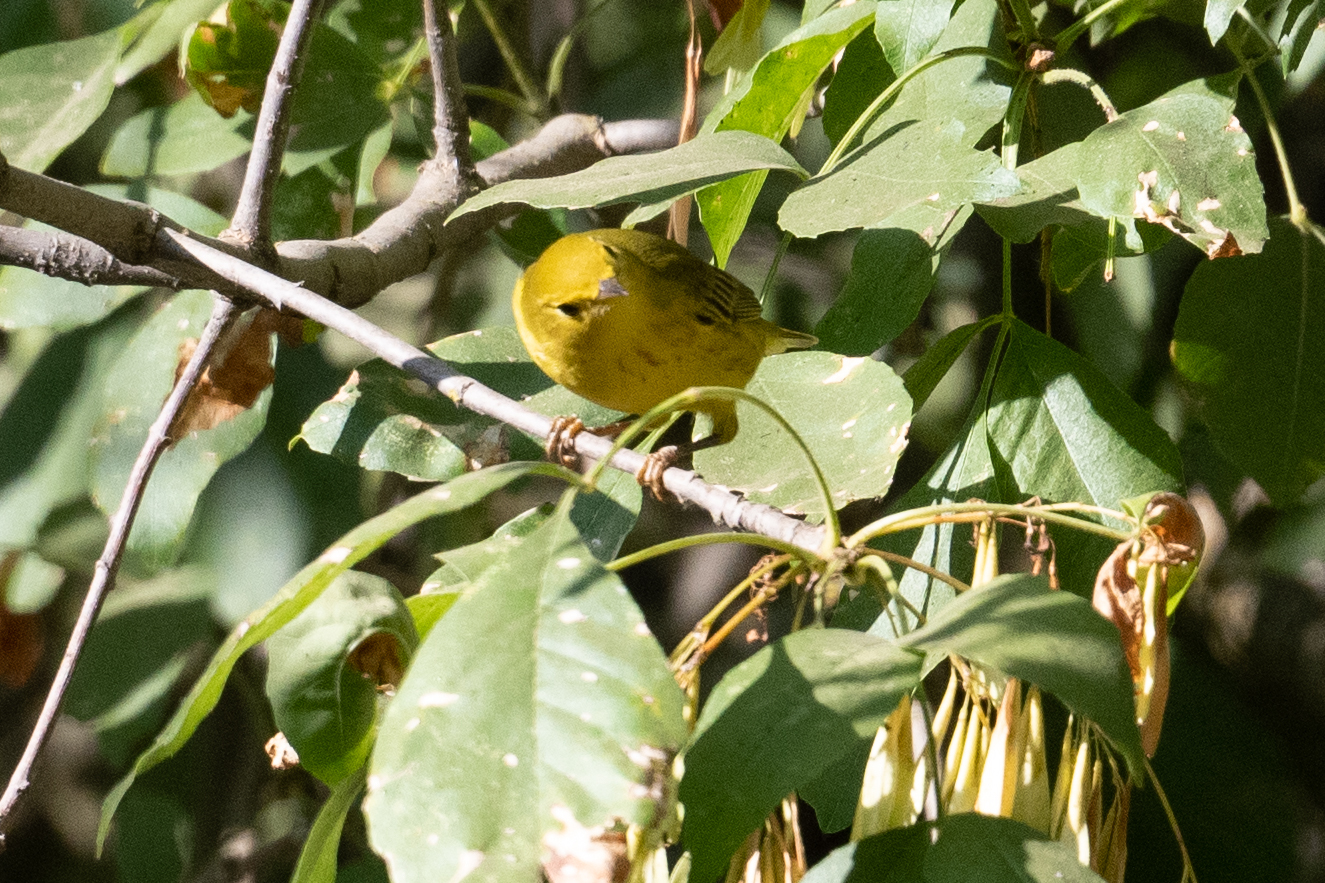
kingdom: Animalia
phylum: Chordata
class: Aves
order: Passeriformes
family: Parulidae
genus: Setophaga
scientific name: Setophaga petechia
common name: Yellow warbler
